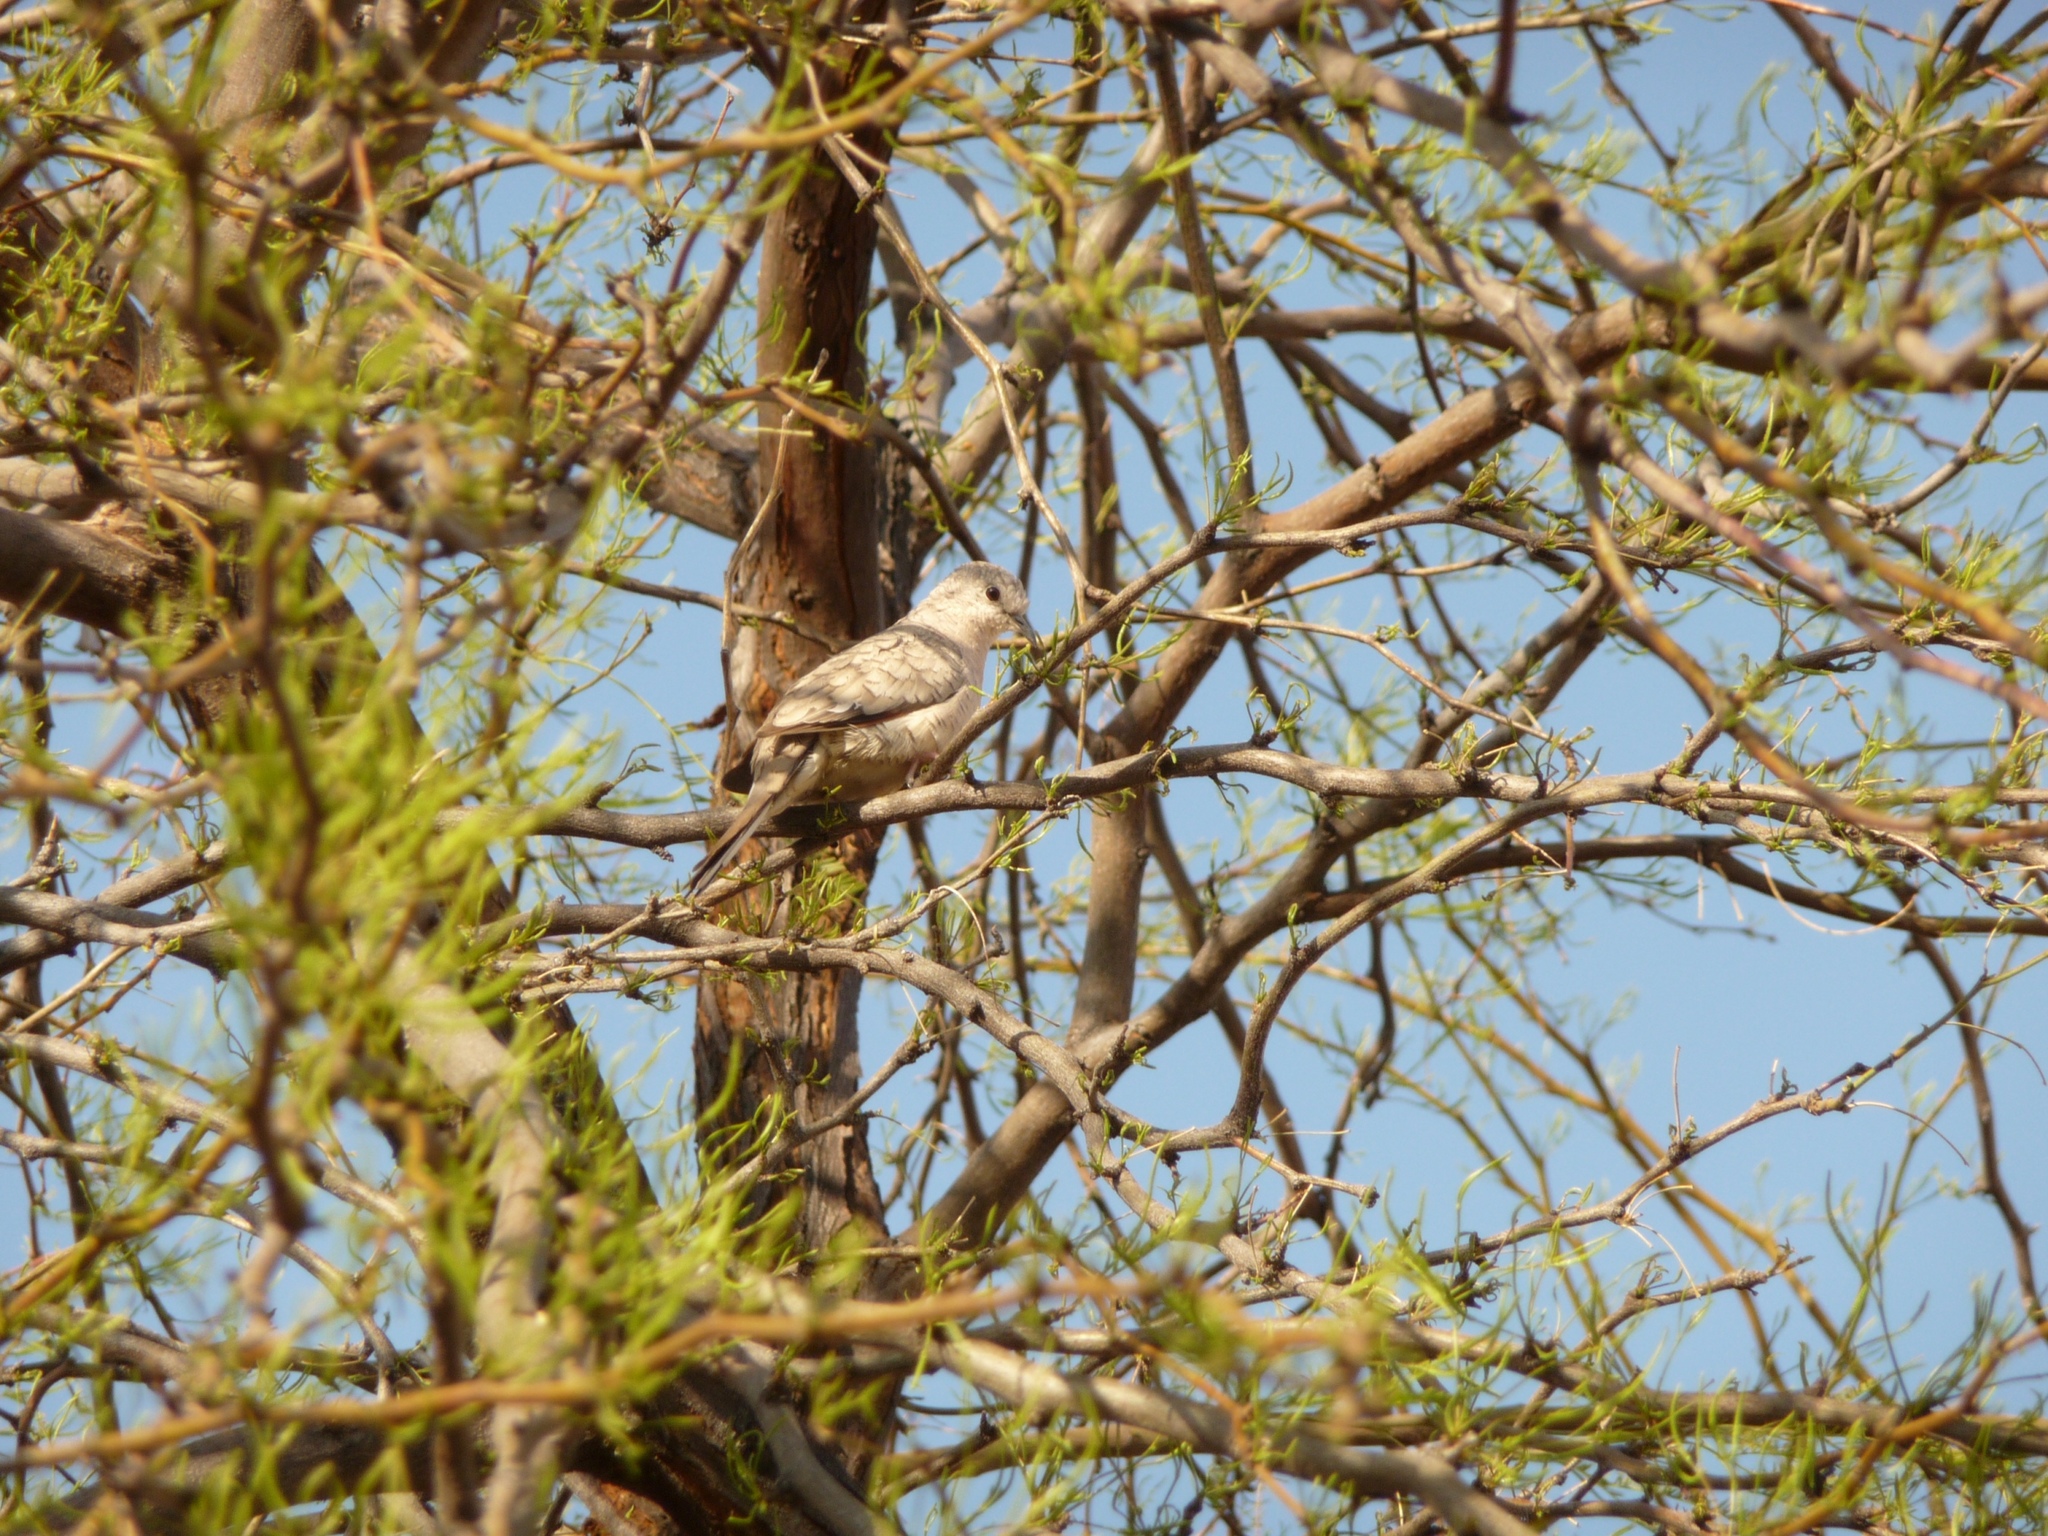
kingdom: Animalia
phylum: Chordata
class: Aves
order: Columbiformes
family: Columbidae
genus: Columbina
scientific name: Columbina inca
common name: Inca dove
